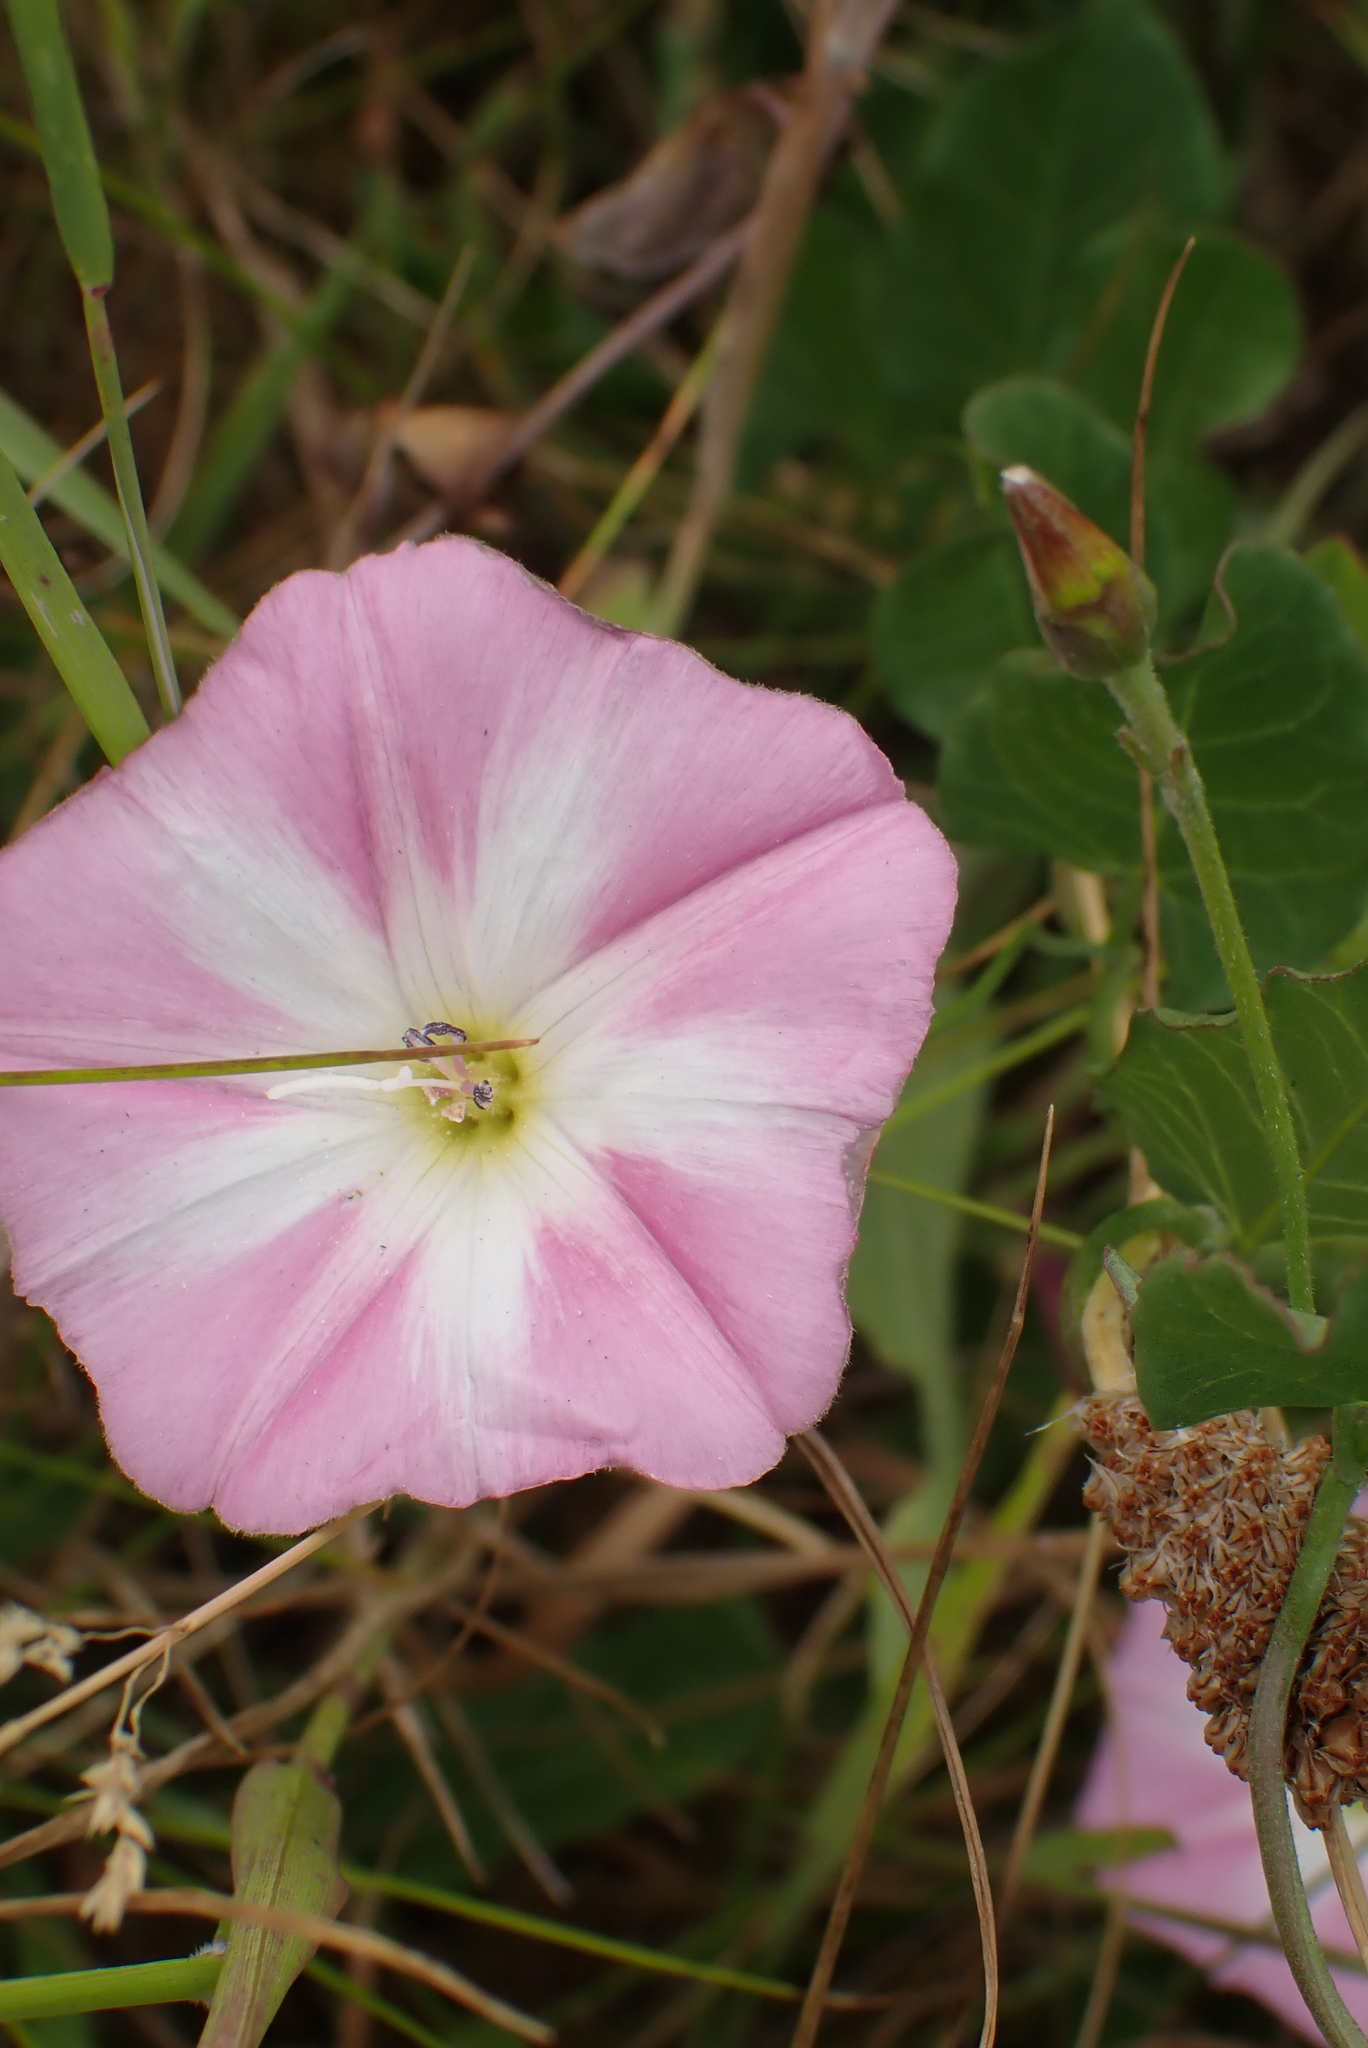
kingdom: Plantae
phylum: Tracheophyta
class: Magnoliopsida
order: Solanales
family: Convolvulaceae
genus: Convolvulus
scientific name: Convolvulus arvensis
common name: Field bindweed
